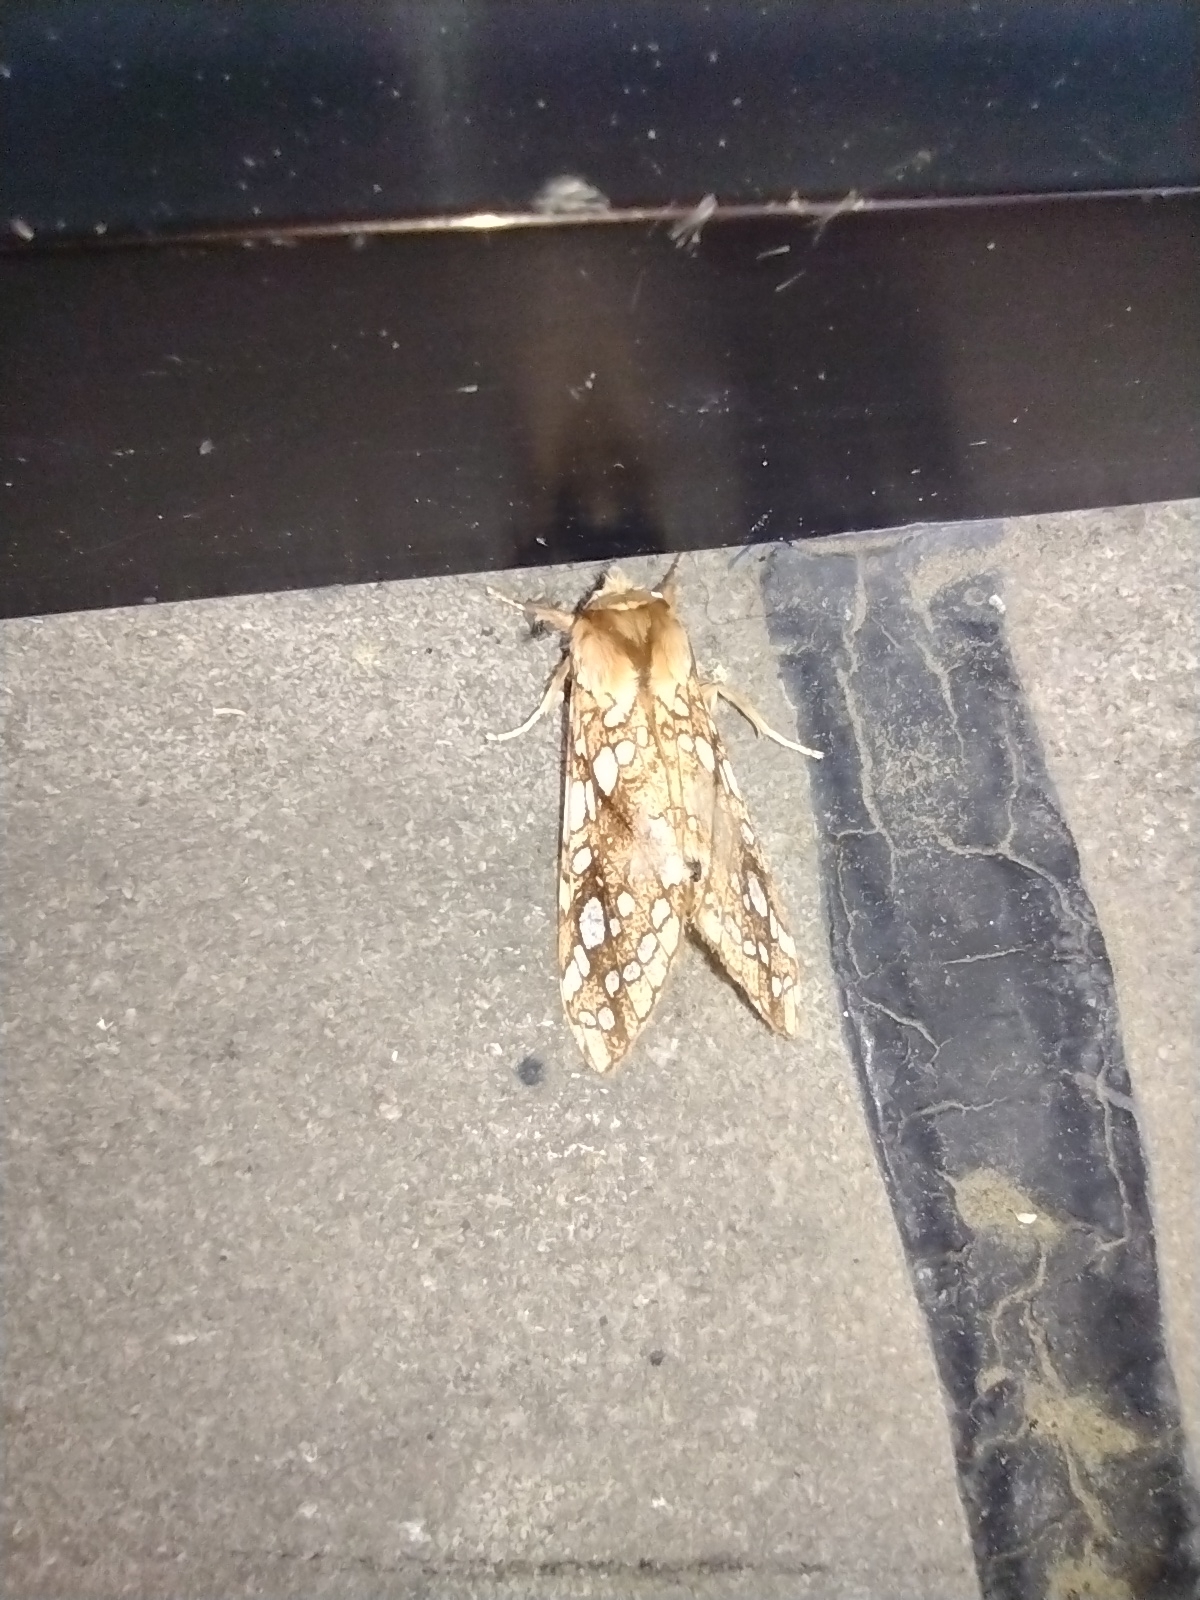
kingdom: Animalia
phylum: Arthropoda
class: Insecta
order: Lepidoptera
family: Erebidae
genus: Lophocampa
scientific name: Lophocampa caryae
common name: Hickory tussock moth
